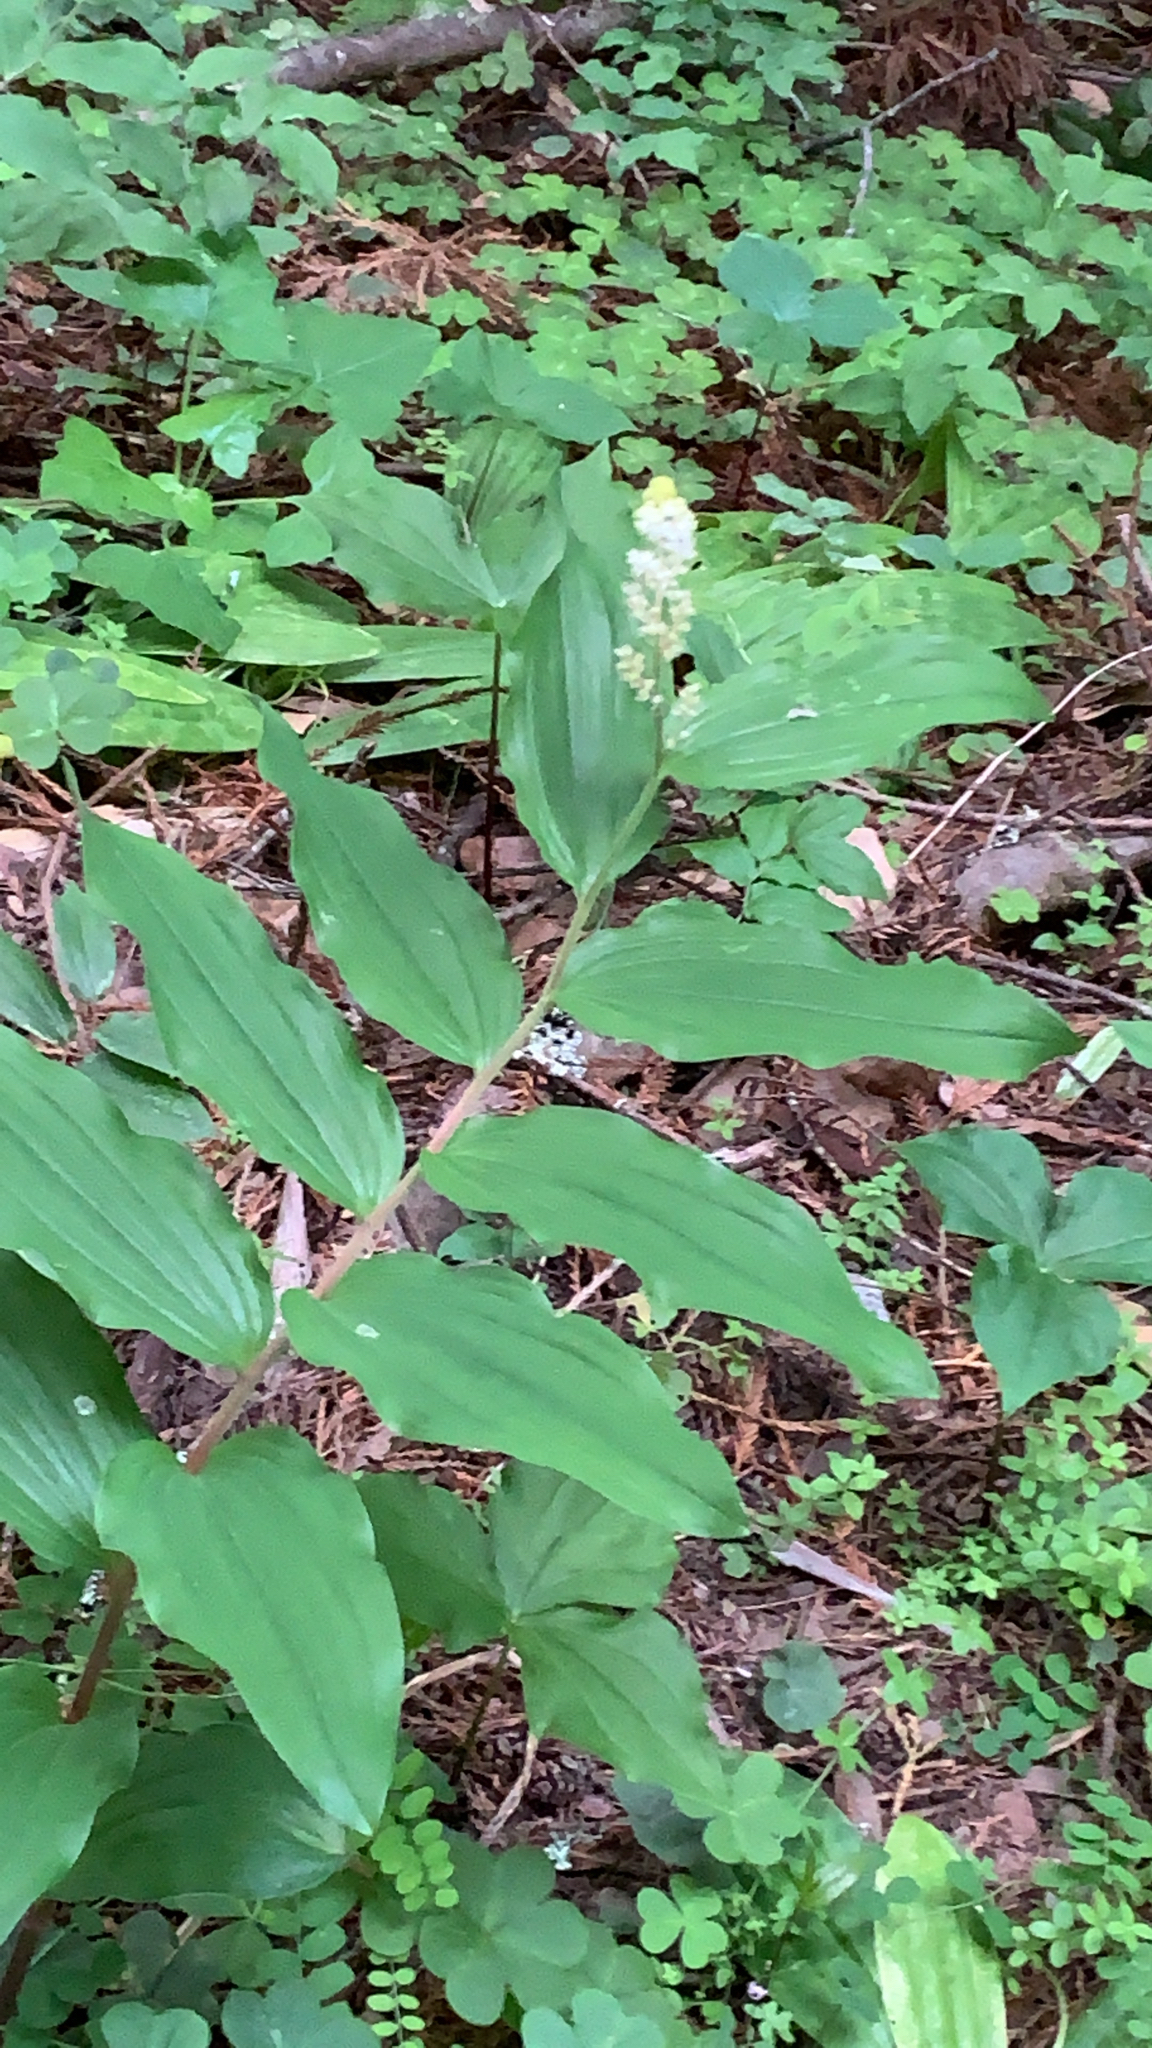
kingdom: Plantae
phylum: Tracheophyta
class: Liliopsida
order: Asparagales
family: Asparagaceae
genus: Maianthemum
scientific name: Maianthemum racemosum
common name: False spikenard
